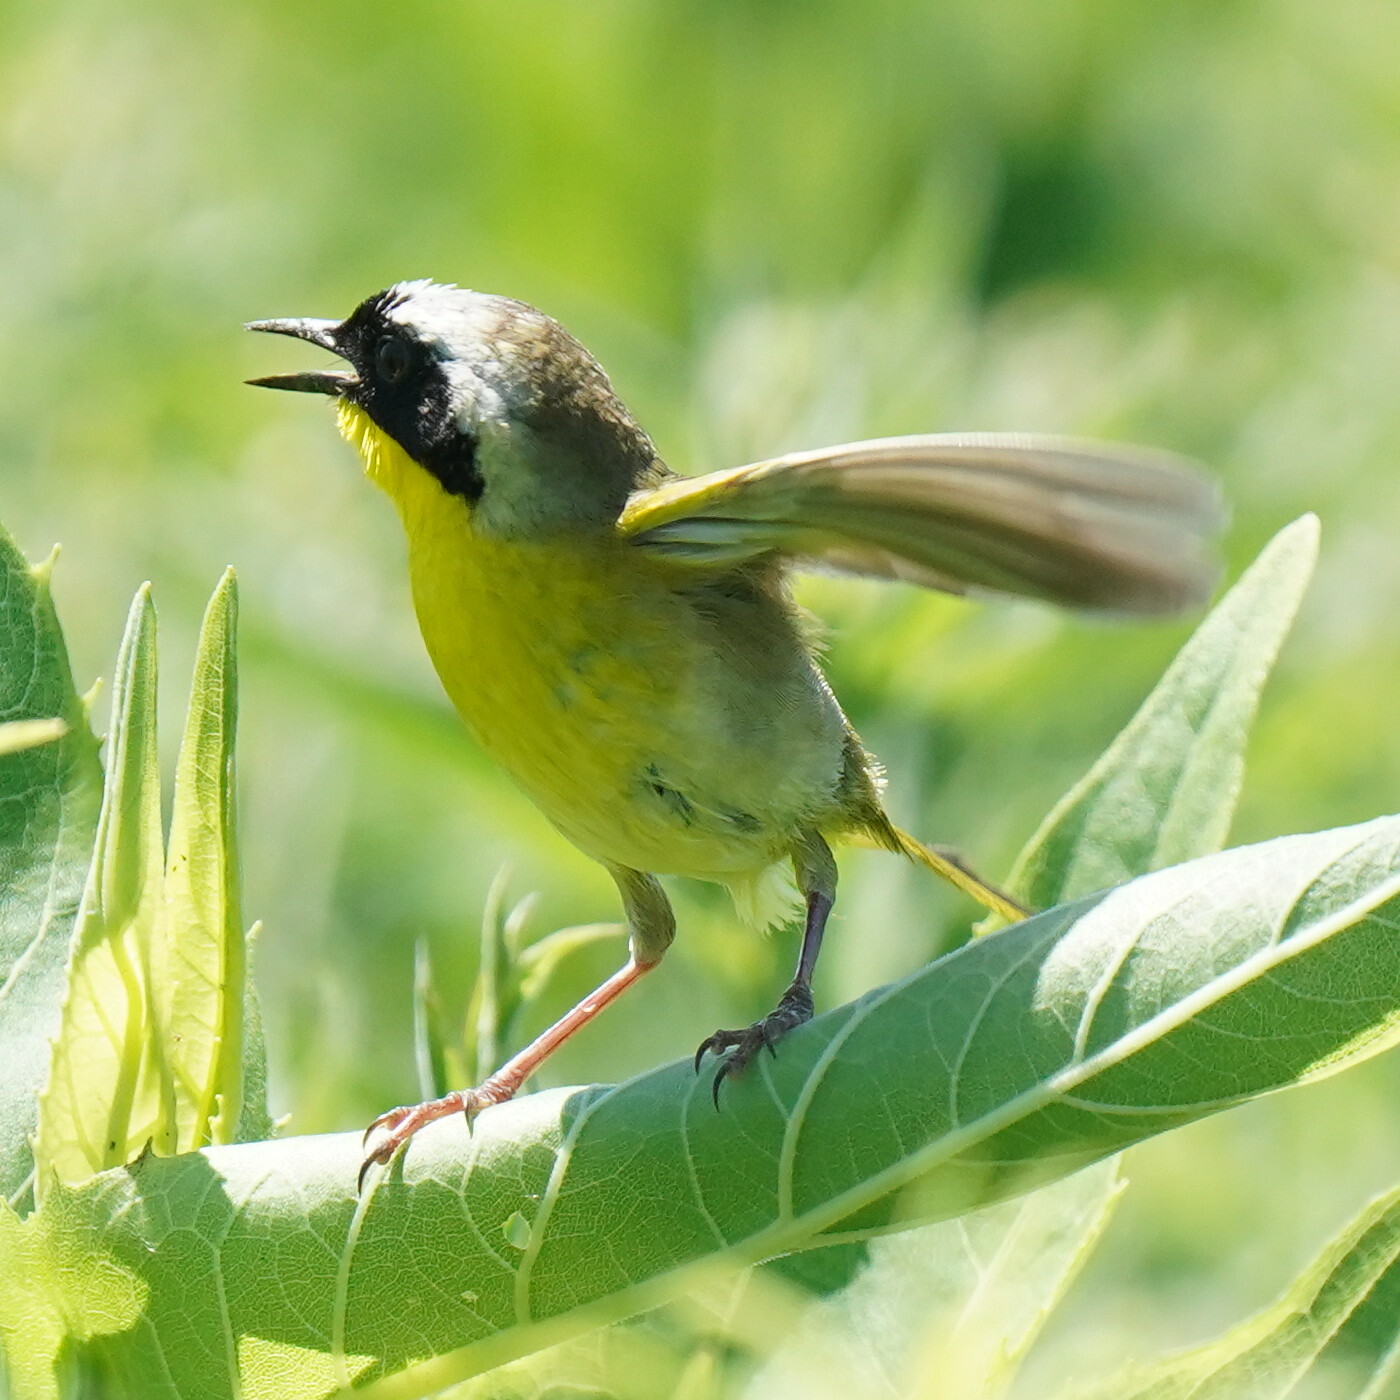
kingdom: Animalia
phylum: Chordata
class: Aves
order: Passeriformes
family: Parulidae
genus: Geothlypis
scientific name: Geothlypis trichas
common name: Common yellowthroat
